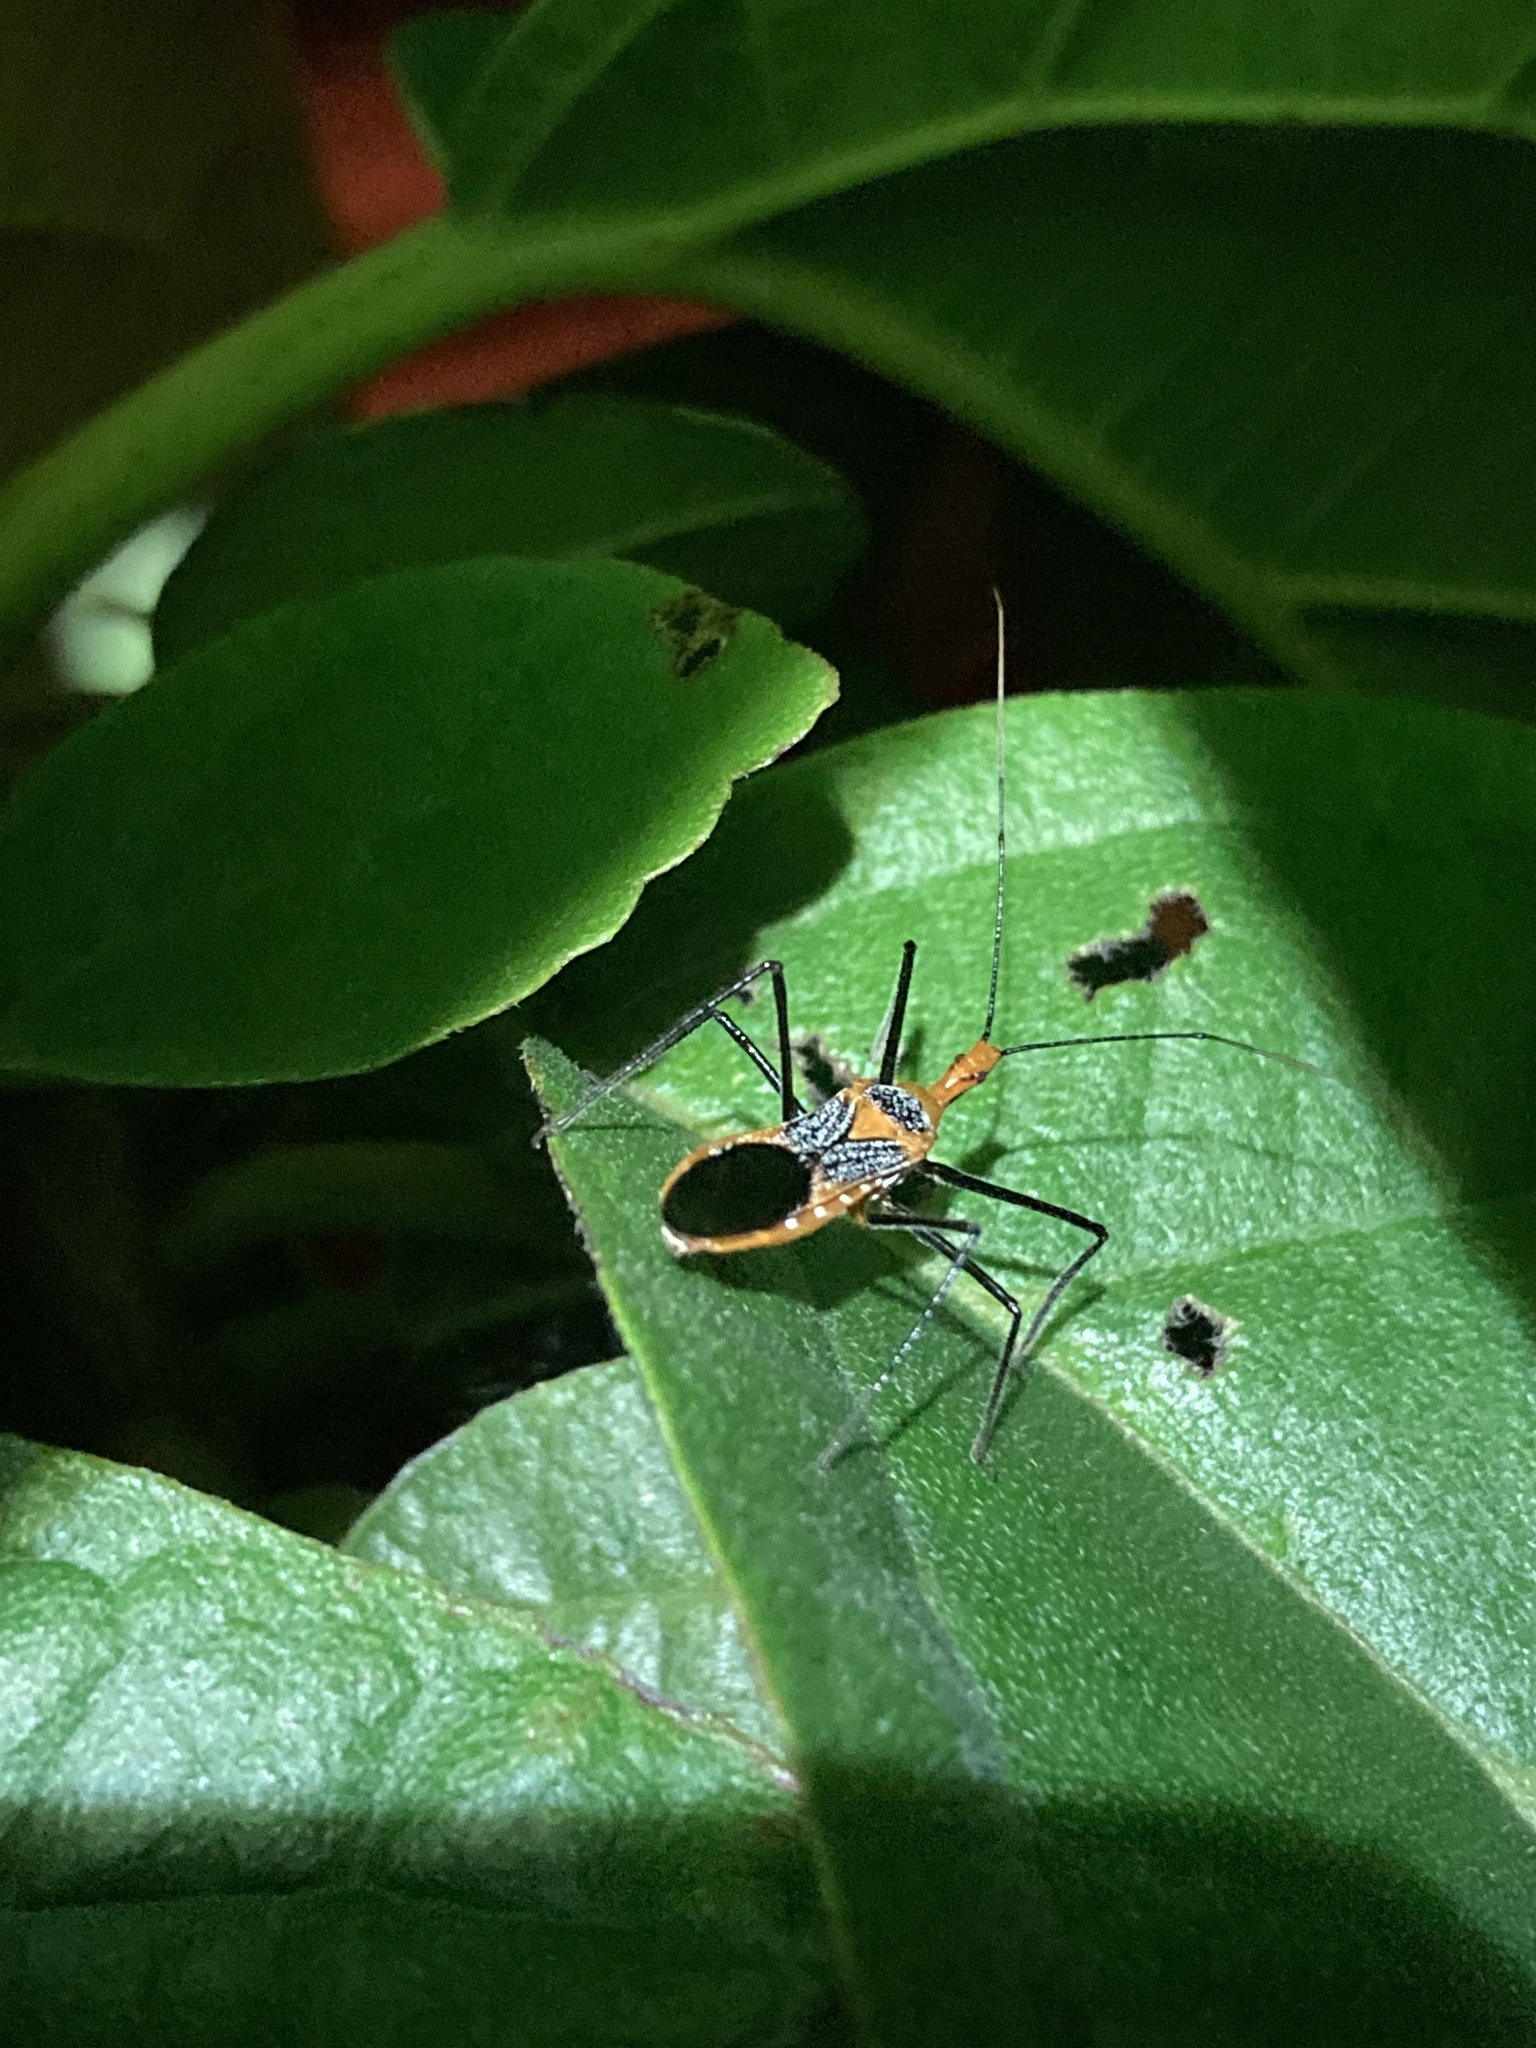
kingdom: Animalia
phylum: Arthropoda
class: Insecta
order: Hemiptera
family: Reduviidae
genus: Zelus
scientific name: Zelus longipes
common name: Milkweed assassin bug
